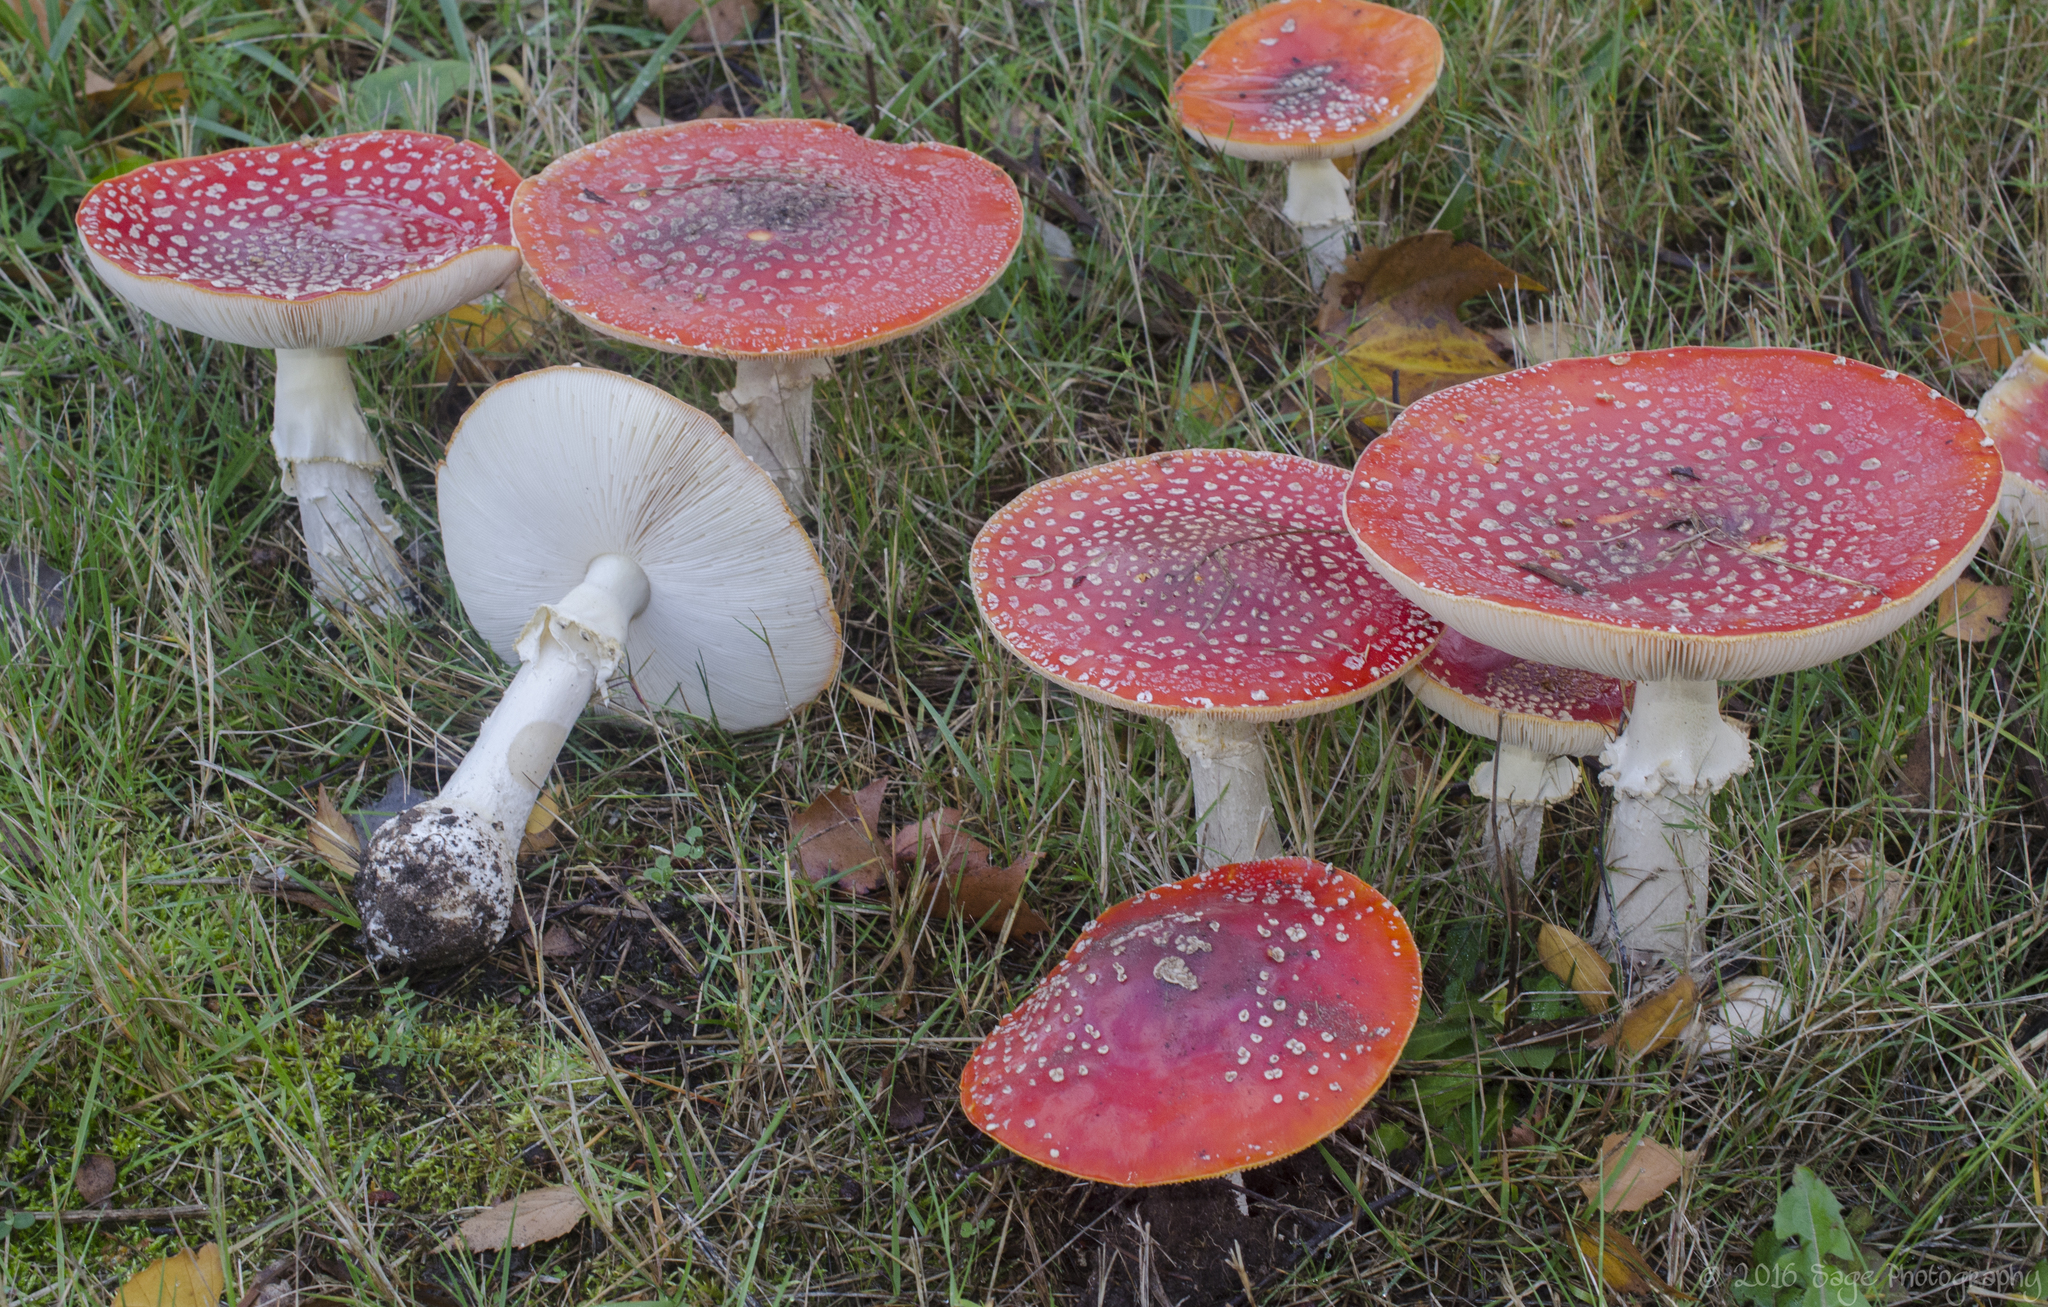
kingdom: Fungi
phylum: Basidiomycota
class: Agaricomycetes
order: Agaricales
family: Amanitaceae
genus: Amanita
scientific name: Amanita muscaria
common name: Fly agaric
